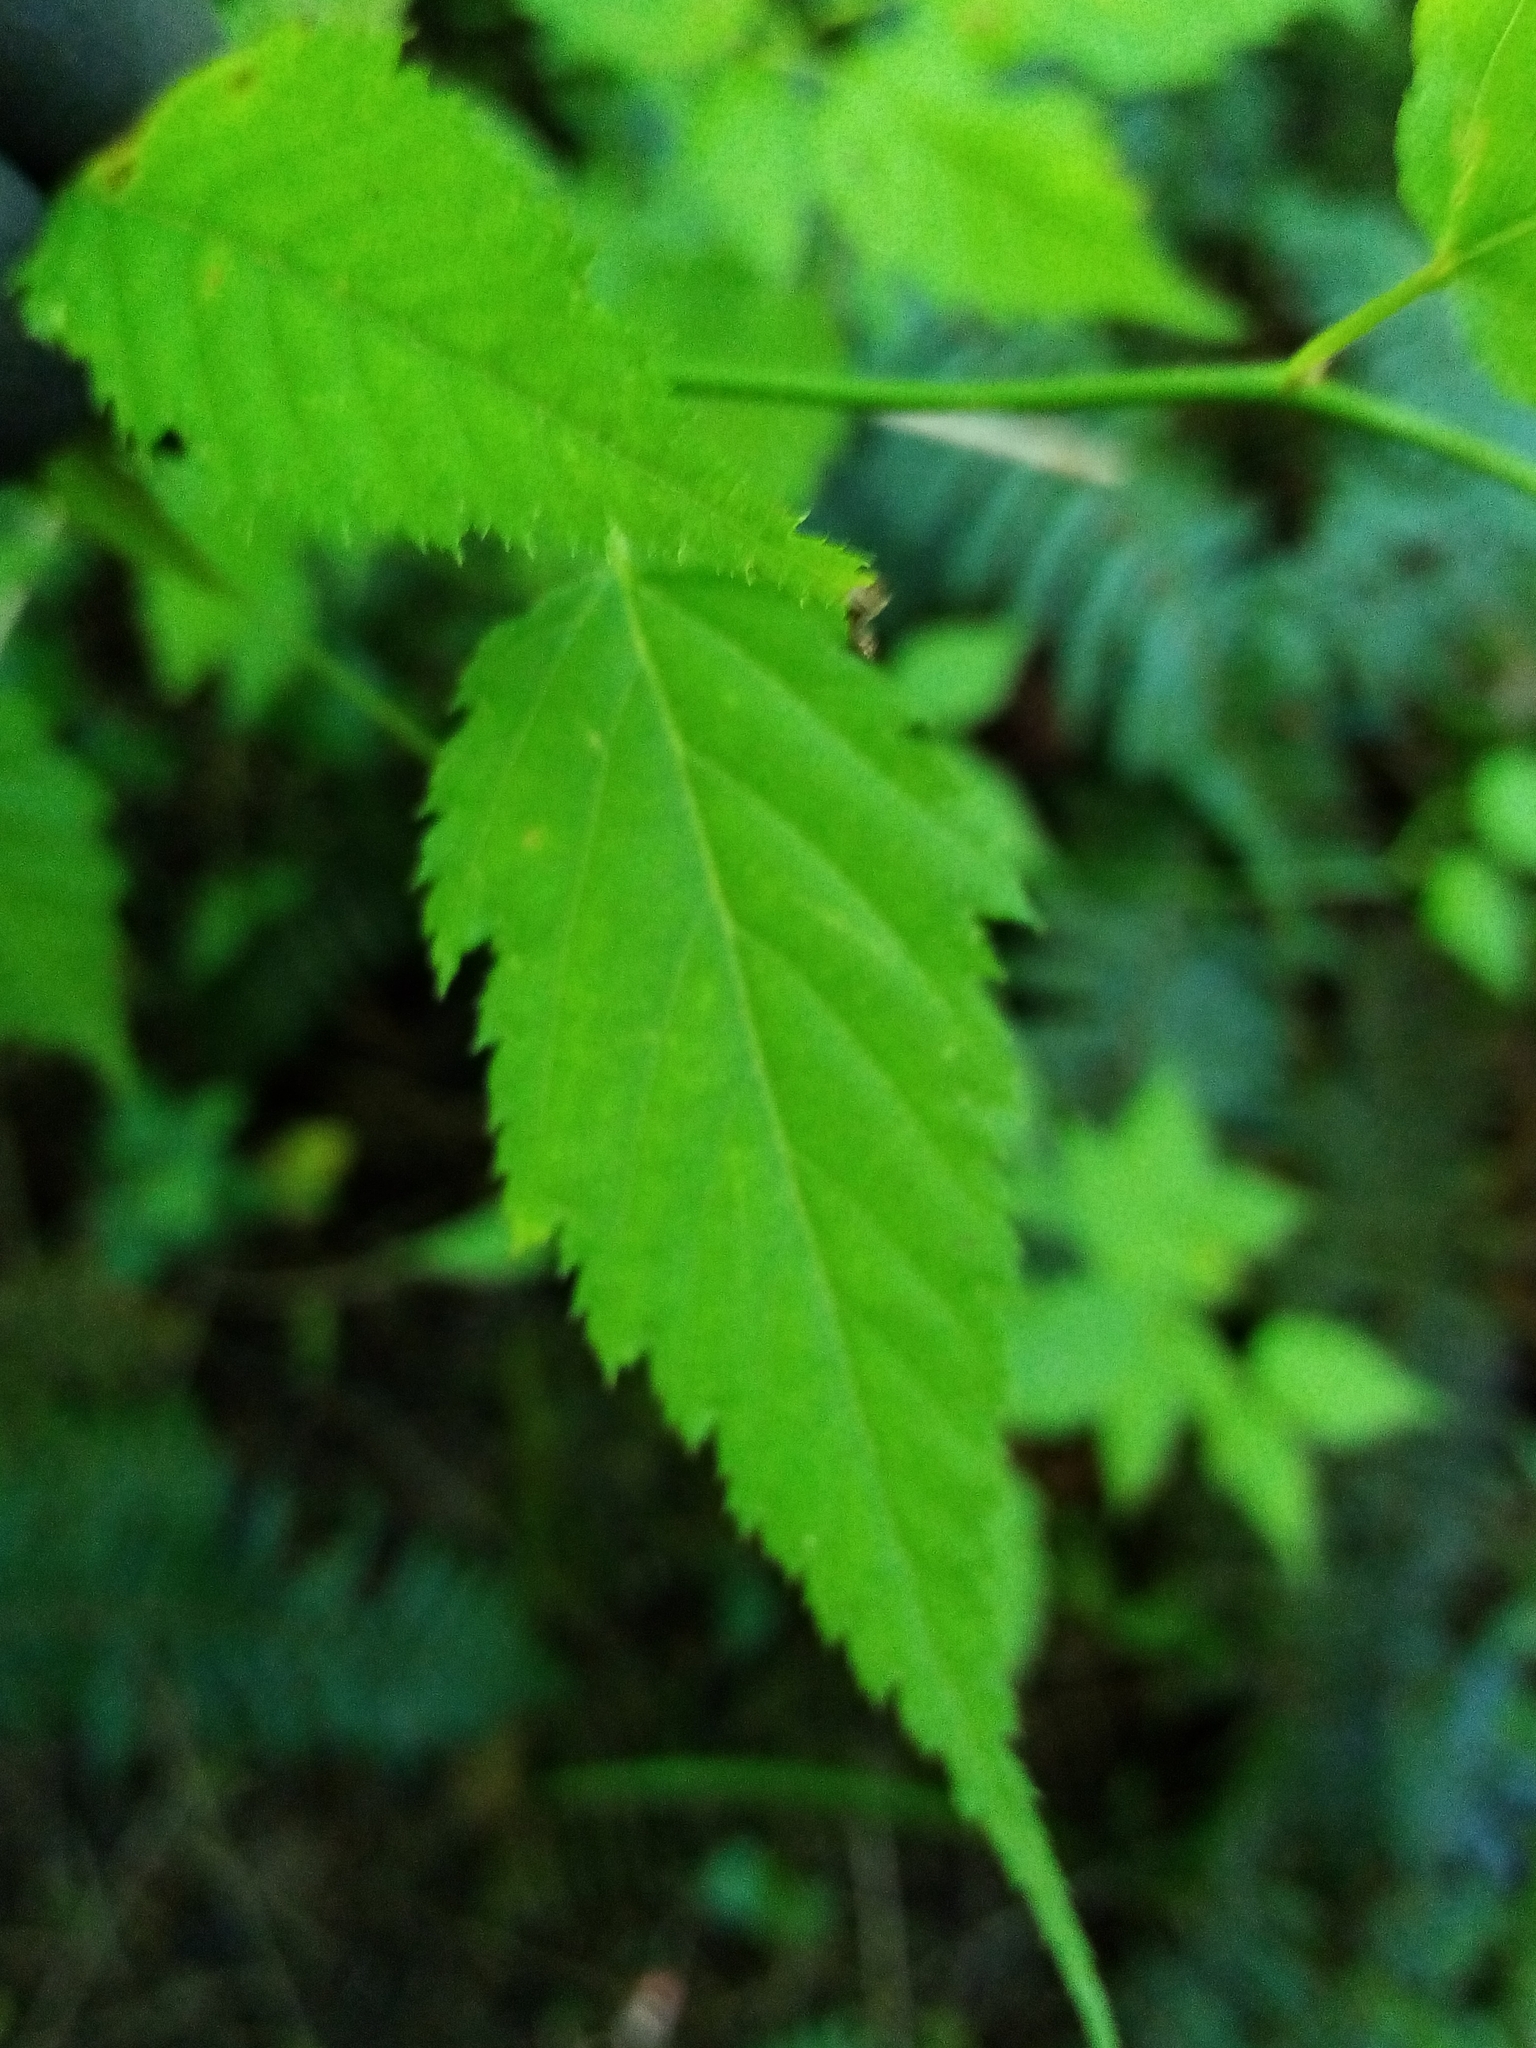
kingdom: Plantae
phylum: Tracheophyta
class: Magnoliopsida
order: Rosales
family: Rosaceae
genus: Kerria
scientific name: Kerria japonica
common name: Japanese kerria
